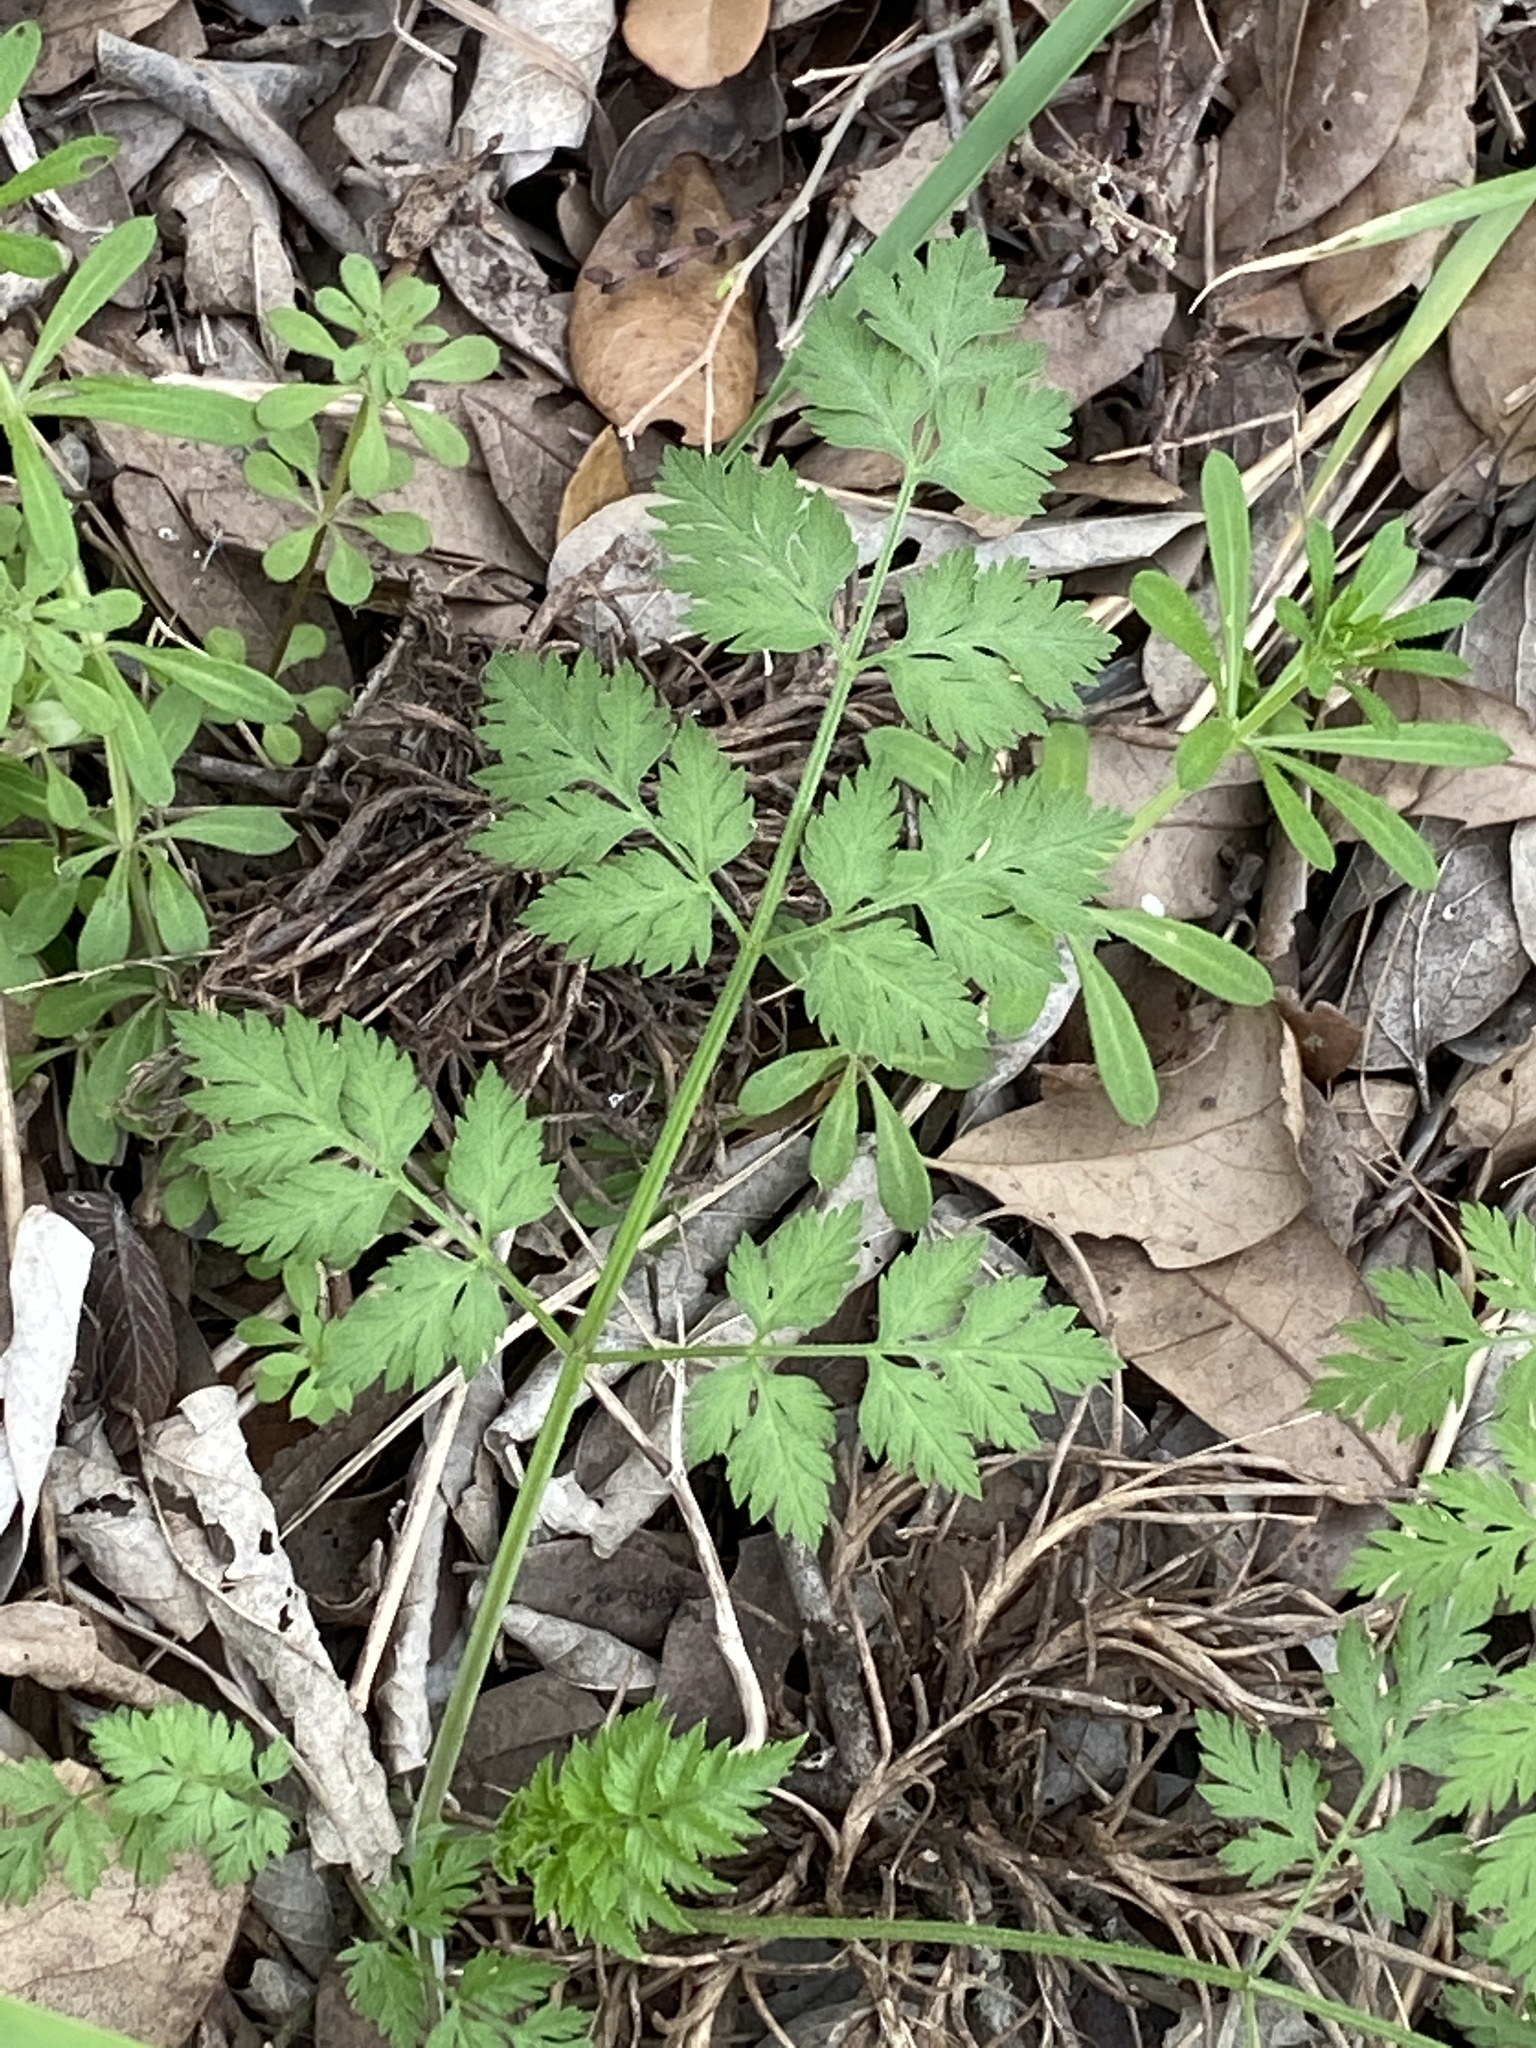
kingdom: Plantae
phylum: Tracheophyta
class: Magnoliopsida
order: Apiales
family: Apiaceae
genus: Torilis
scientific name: Torilis arvensis
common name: Spreading hedge-parsley
